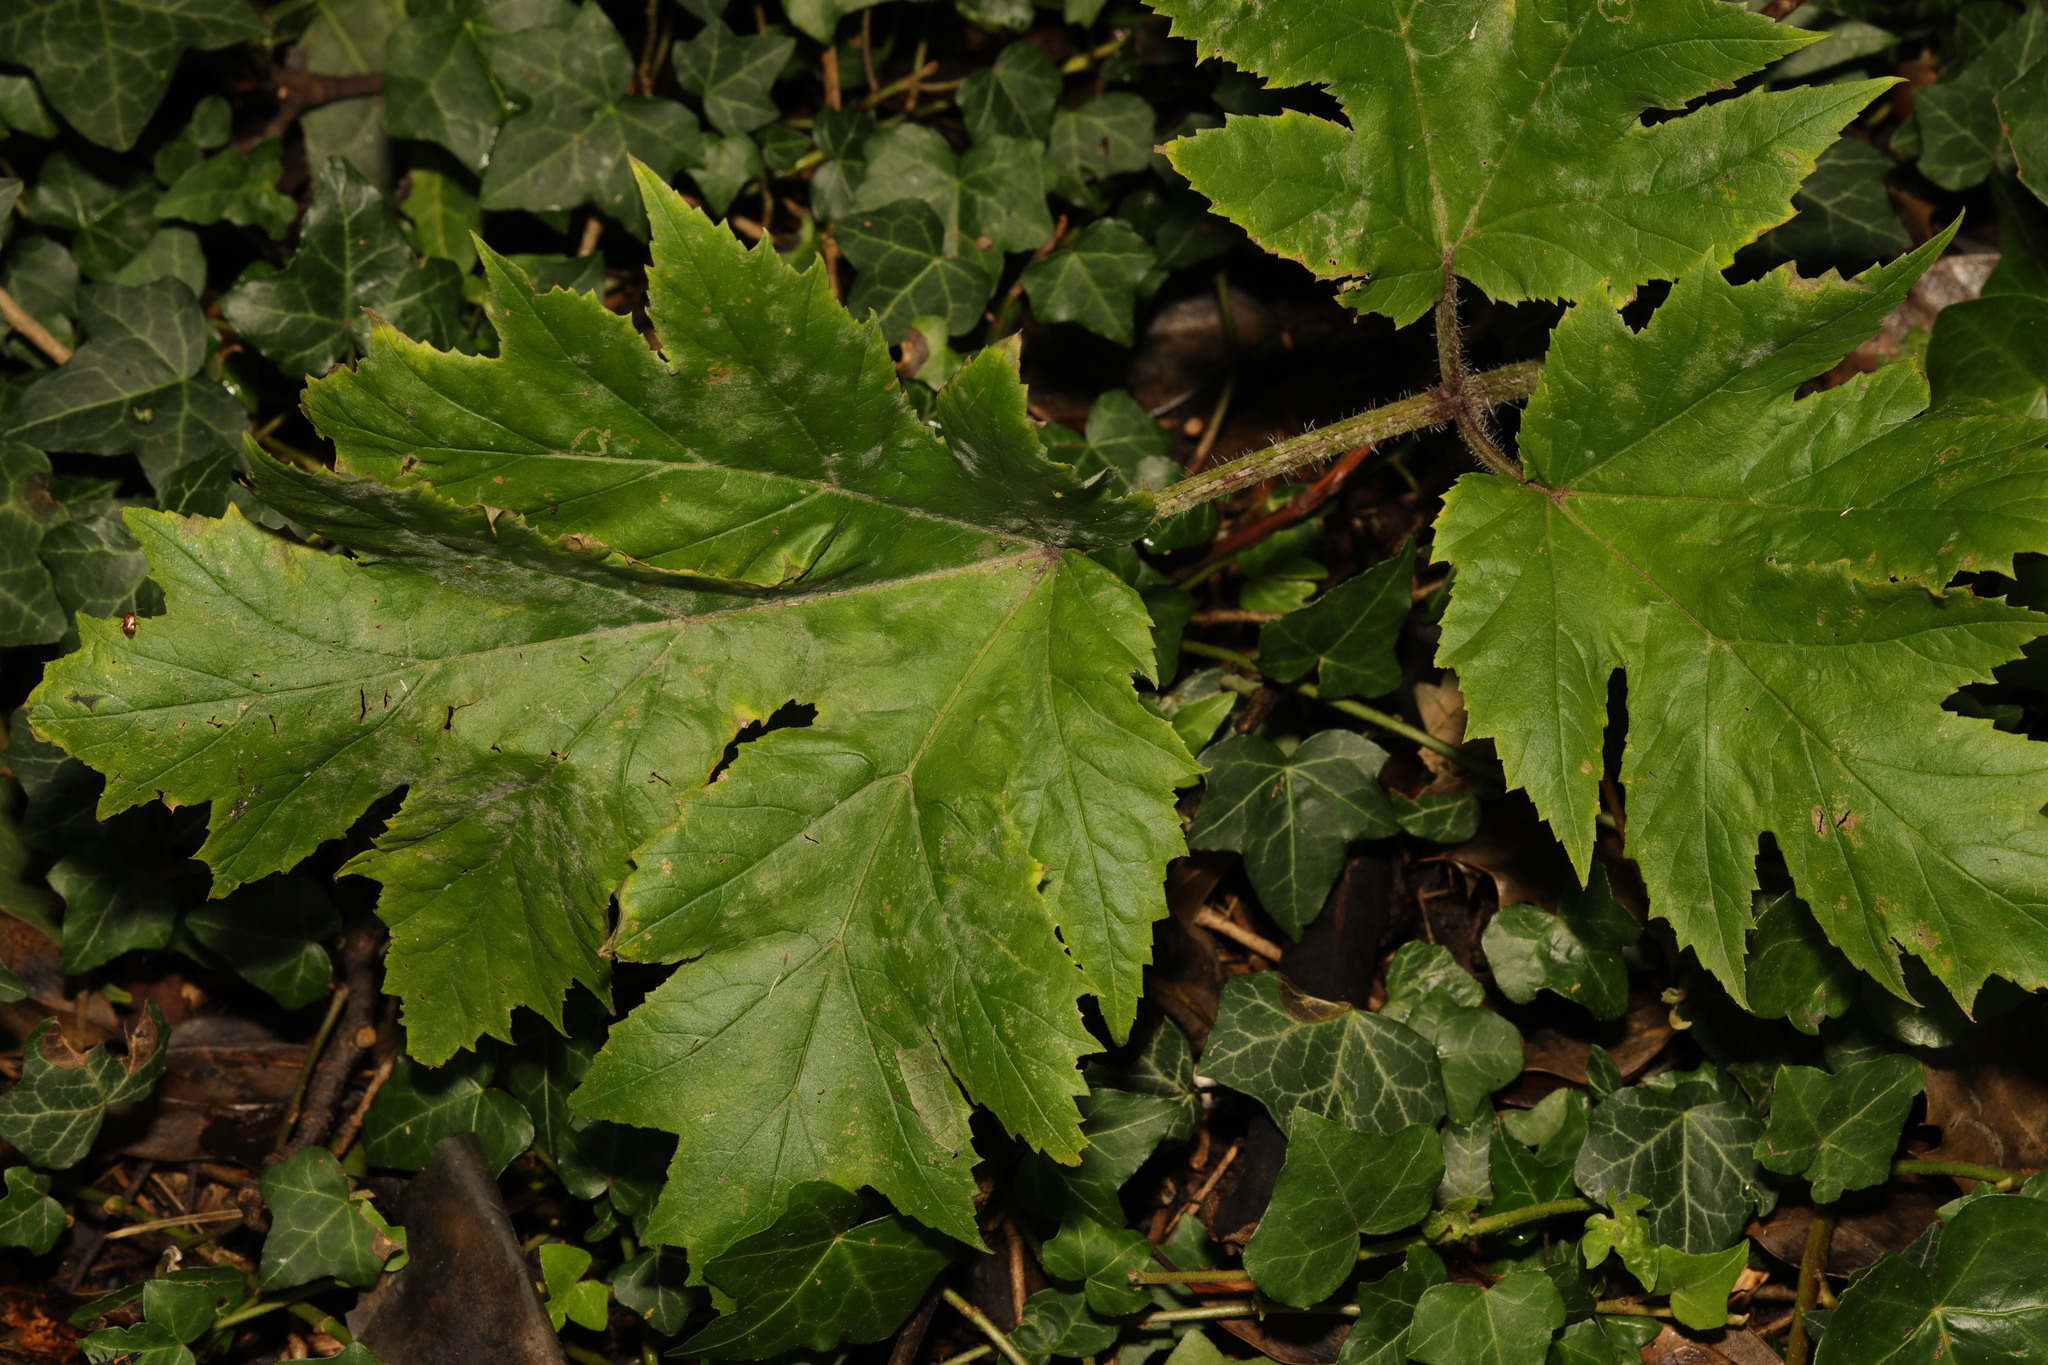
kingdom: Plantae
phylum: Tracheophyta
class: Magnoliopsida
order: Apiales
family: Apiaceae
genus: Heracleum
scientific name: Heracleum mantegazzianum
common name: Giant hogweed
